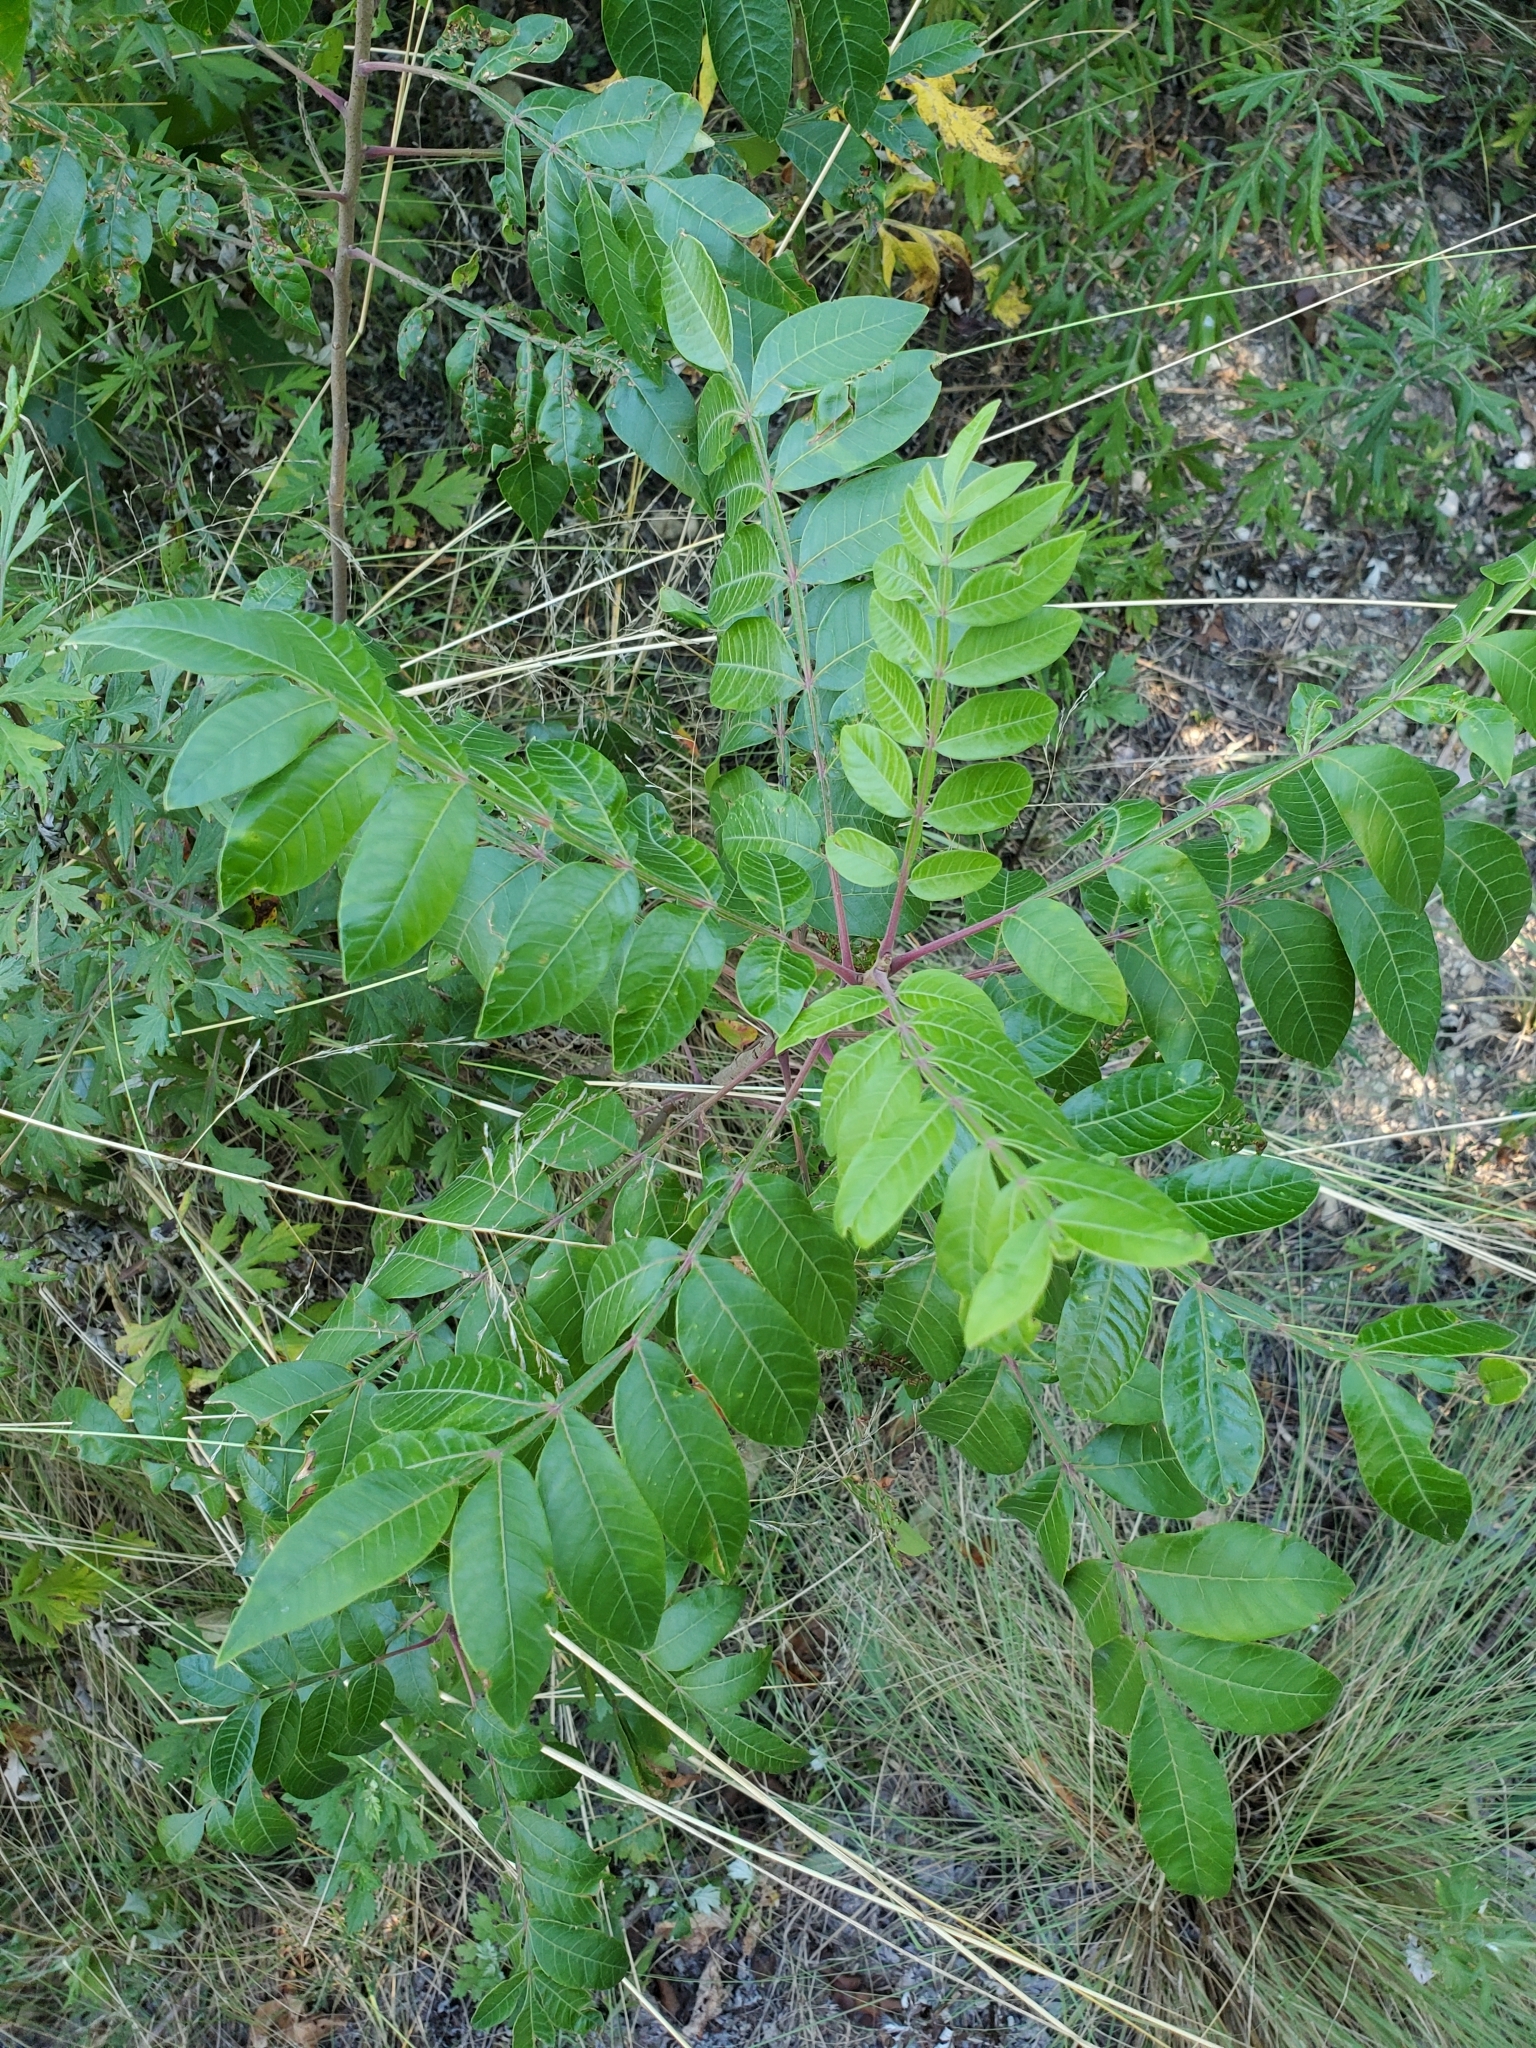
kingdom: Plantae
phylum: Tracheophyta
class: Magnoliopsida
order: Sapindales
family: Anacardiaceae
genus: Rhus
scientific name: Rhus copallina
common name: Shining sumac
